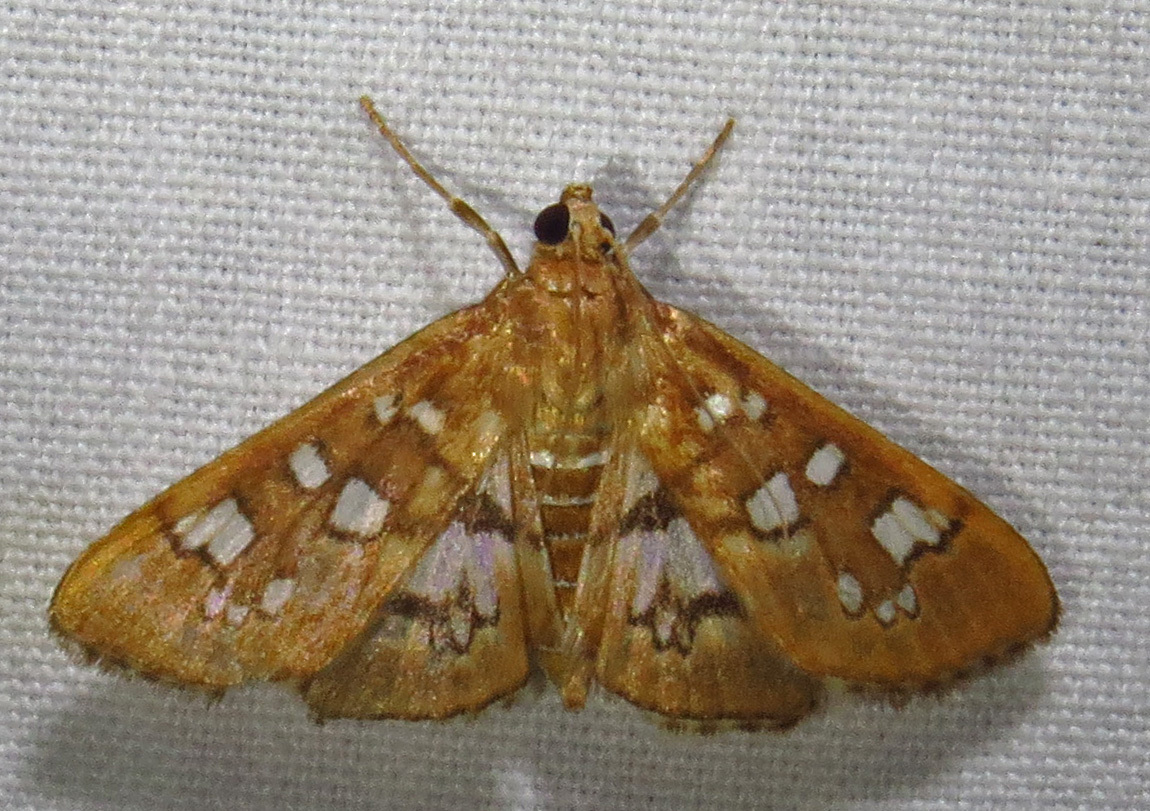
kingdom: Animalia
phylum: Arthropoda
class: Insecta
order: Lepidoptera
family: Crambidae
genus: Samea
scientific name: Samea baccatalis
